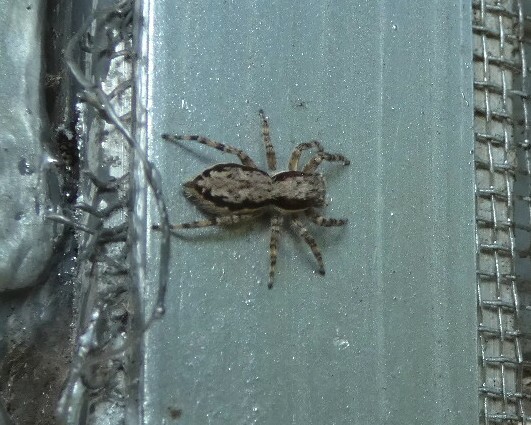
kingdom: Animalia
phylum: Arthropoda
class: Arachnida
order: Araneae
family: Salticidae
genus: Menemerus
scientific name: Menemerus bivittatus
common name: Gray wall jumper
